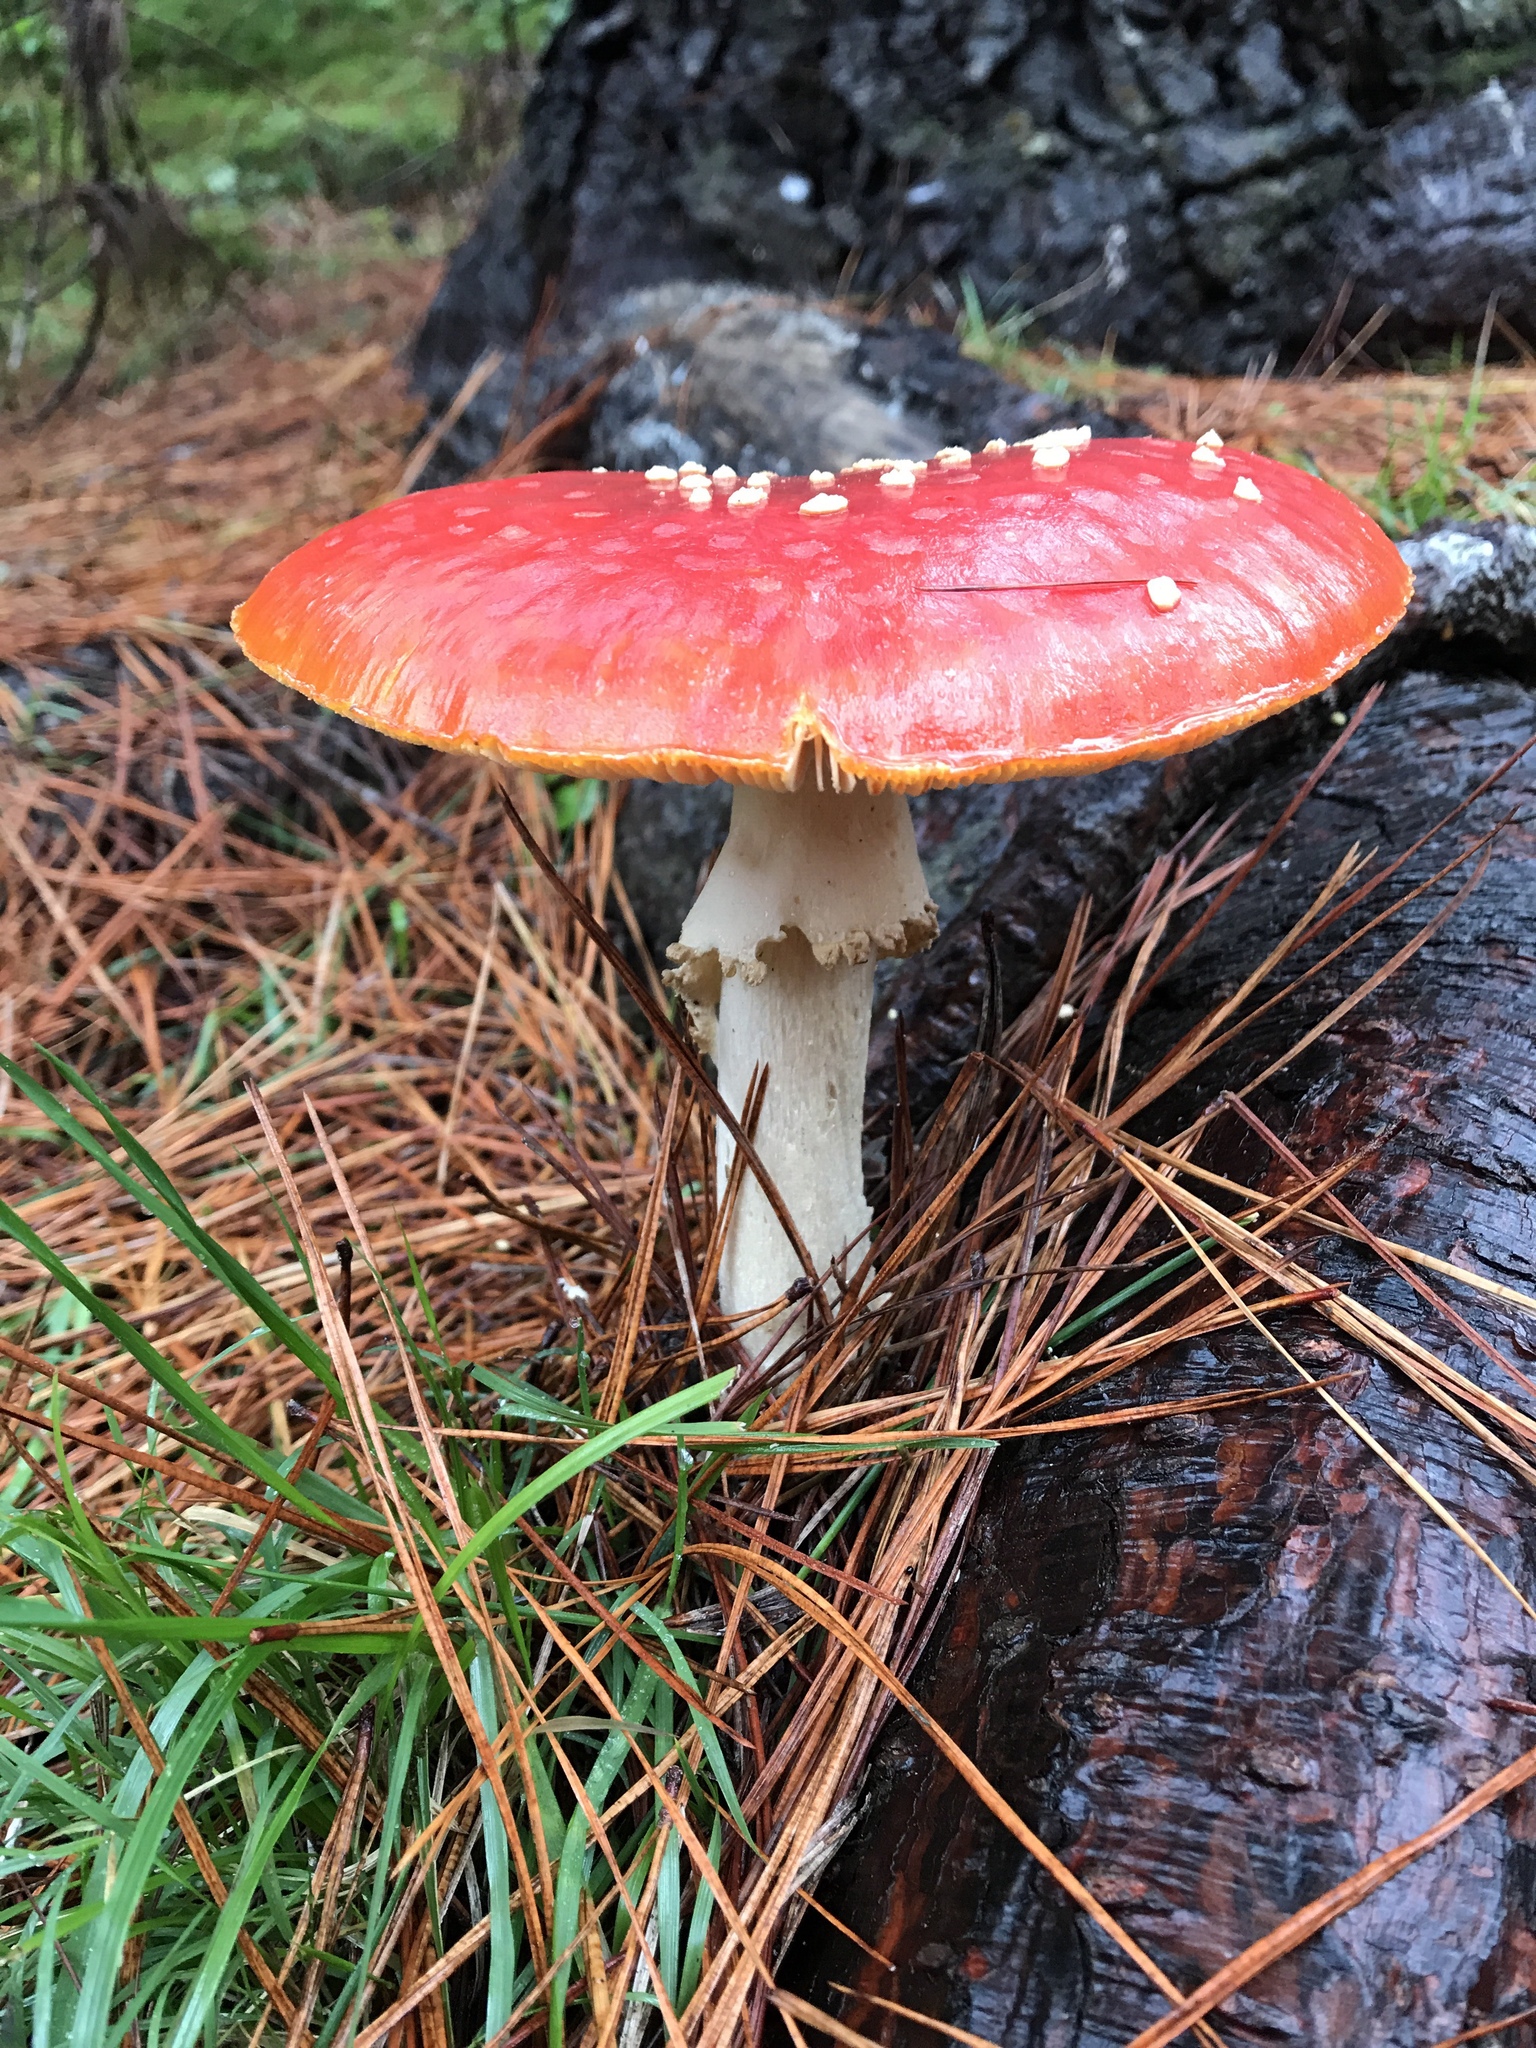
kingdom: Fungi
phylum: Basidiomycota
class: Agaricomycetes
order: Agaricales
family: Amanitaceae
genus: Amanita
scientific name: Amanita muscaria
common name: Fly agaric
